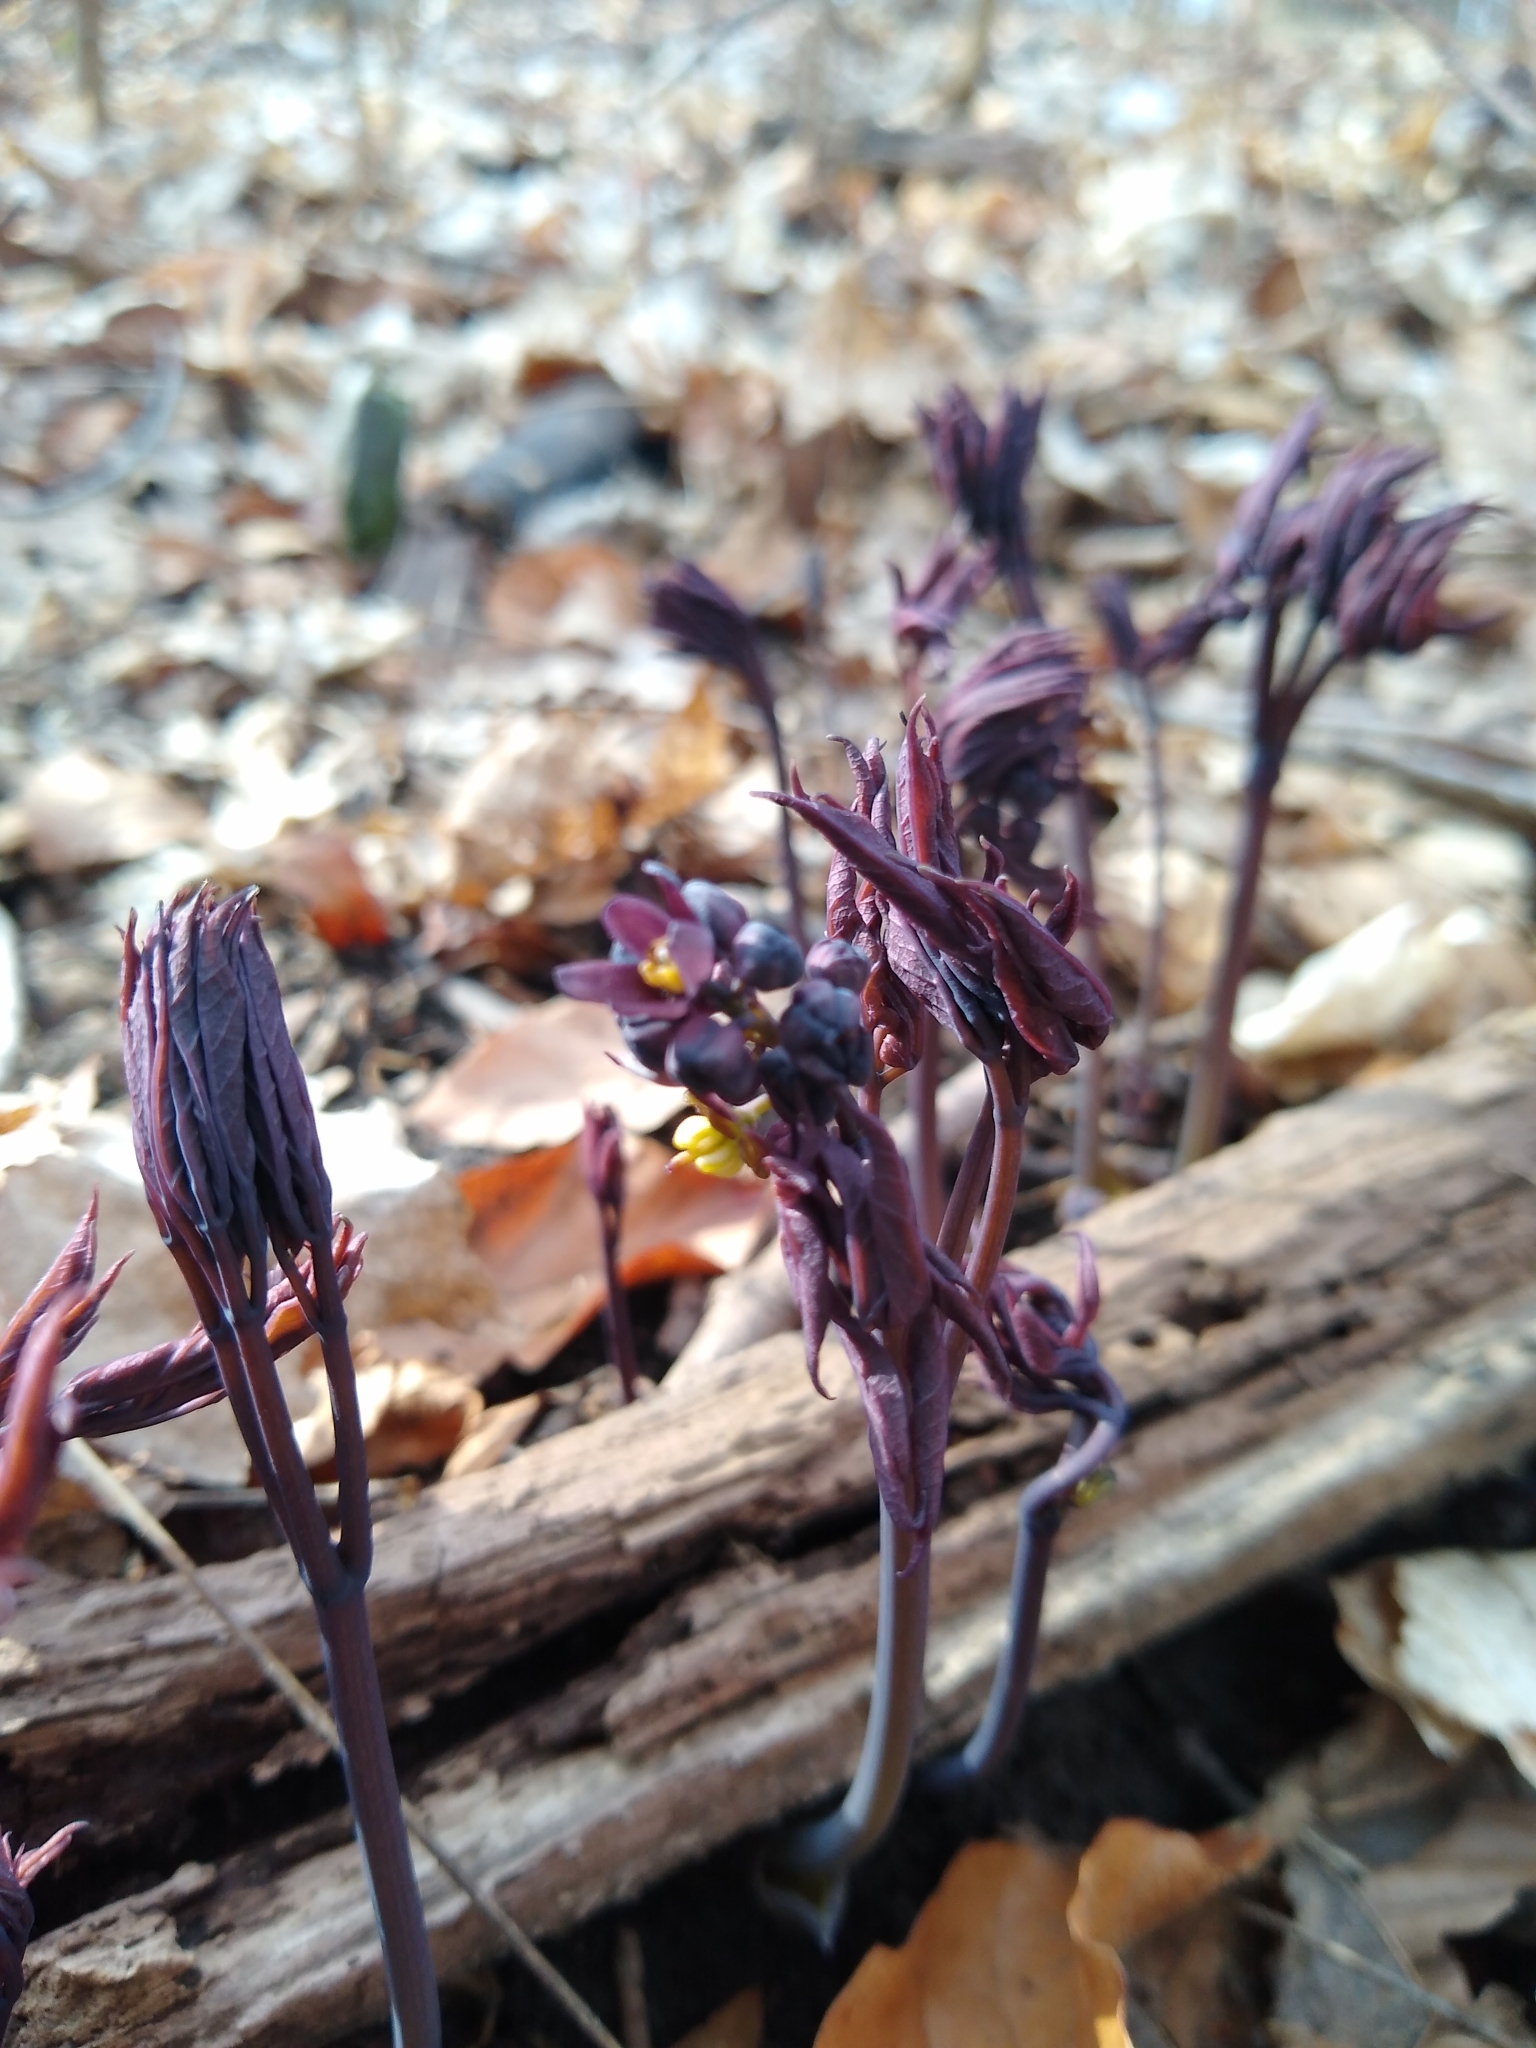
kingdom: Plantae
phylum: Tracheophyta
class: Magnoliopsida
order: Ranunculales
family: Berberidaceae
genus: Caulophyllum
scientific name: Caulophyllum giganteum
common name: Blue cohosh
